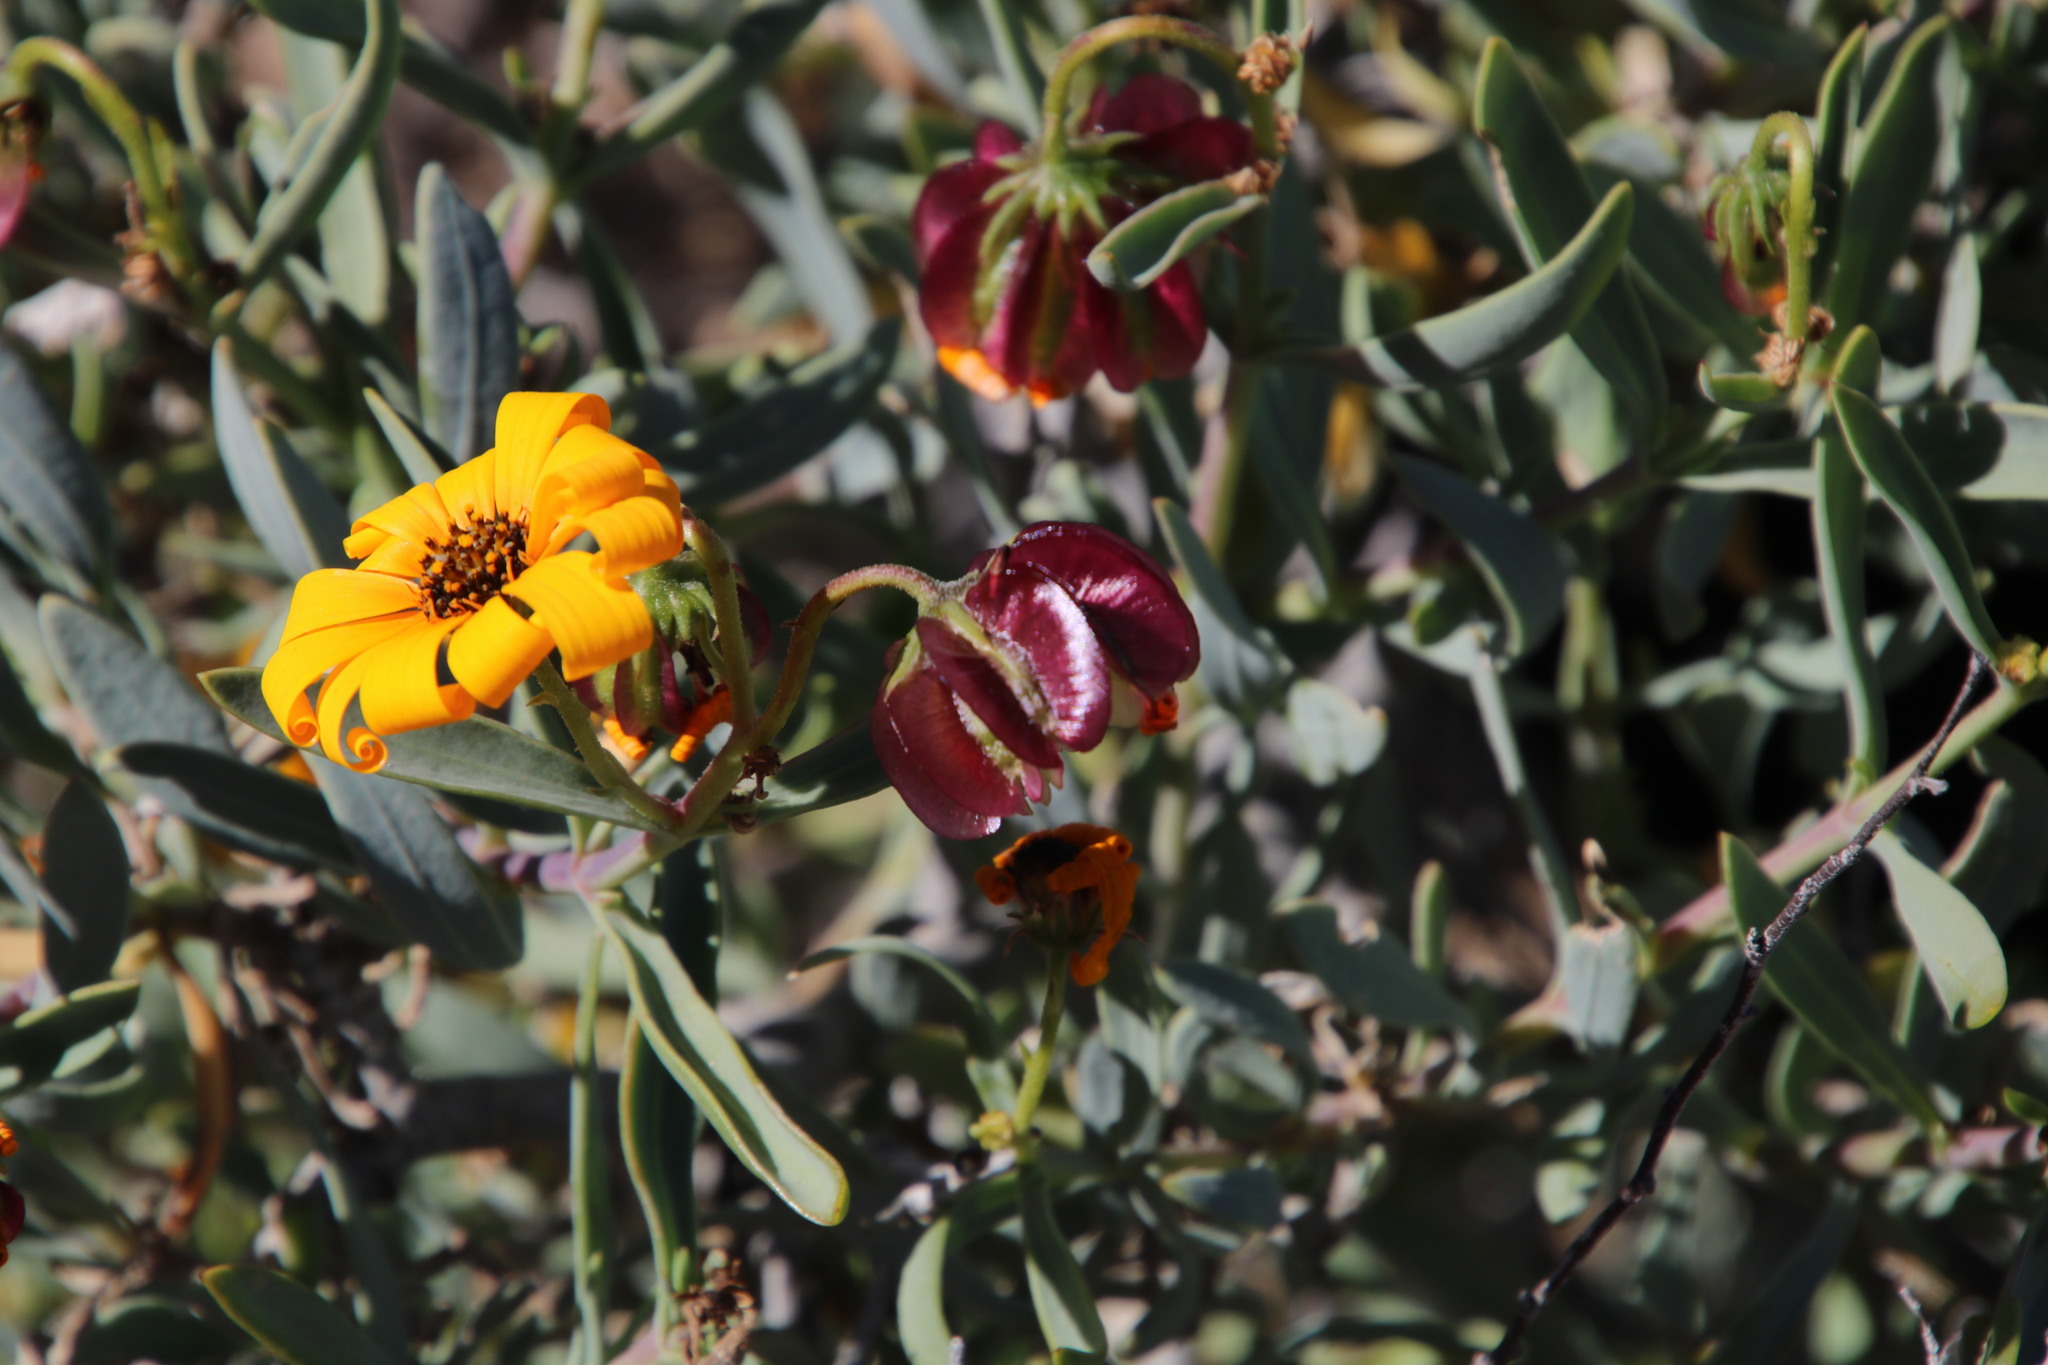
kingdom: Plantae
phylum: Tracheophyta
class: Magnoliopsida
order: Asterales
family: Asteraceae
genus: Osteospermum
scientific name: Osteospermum oppositifolium
